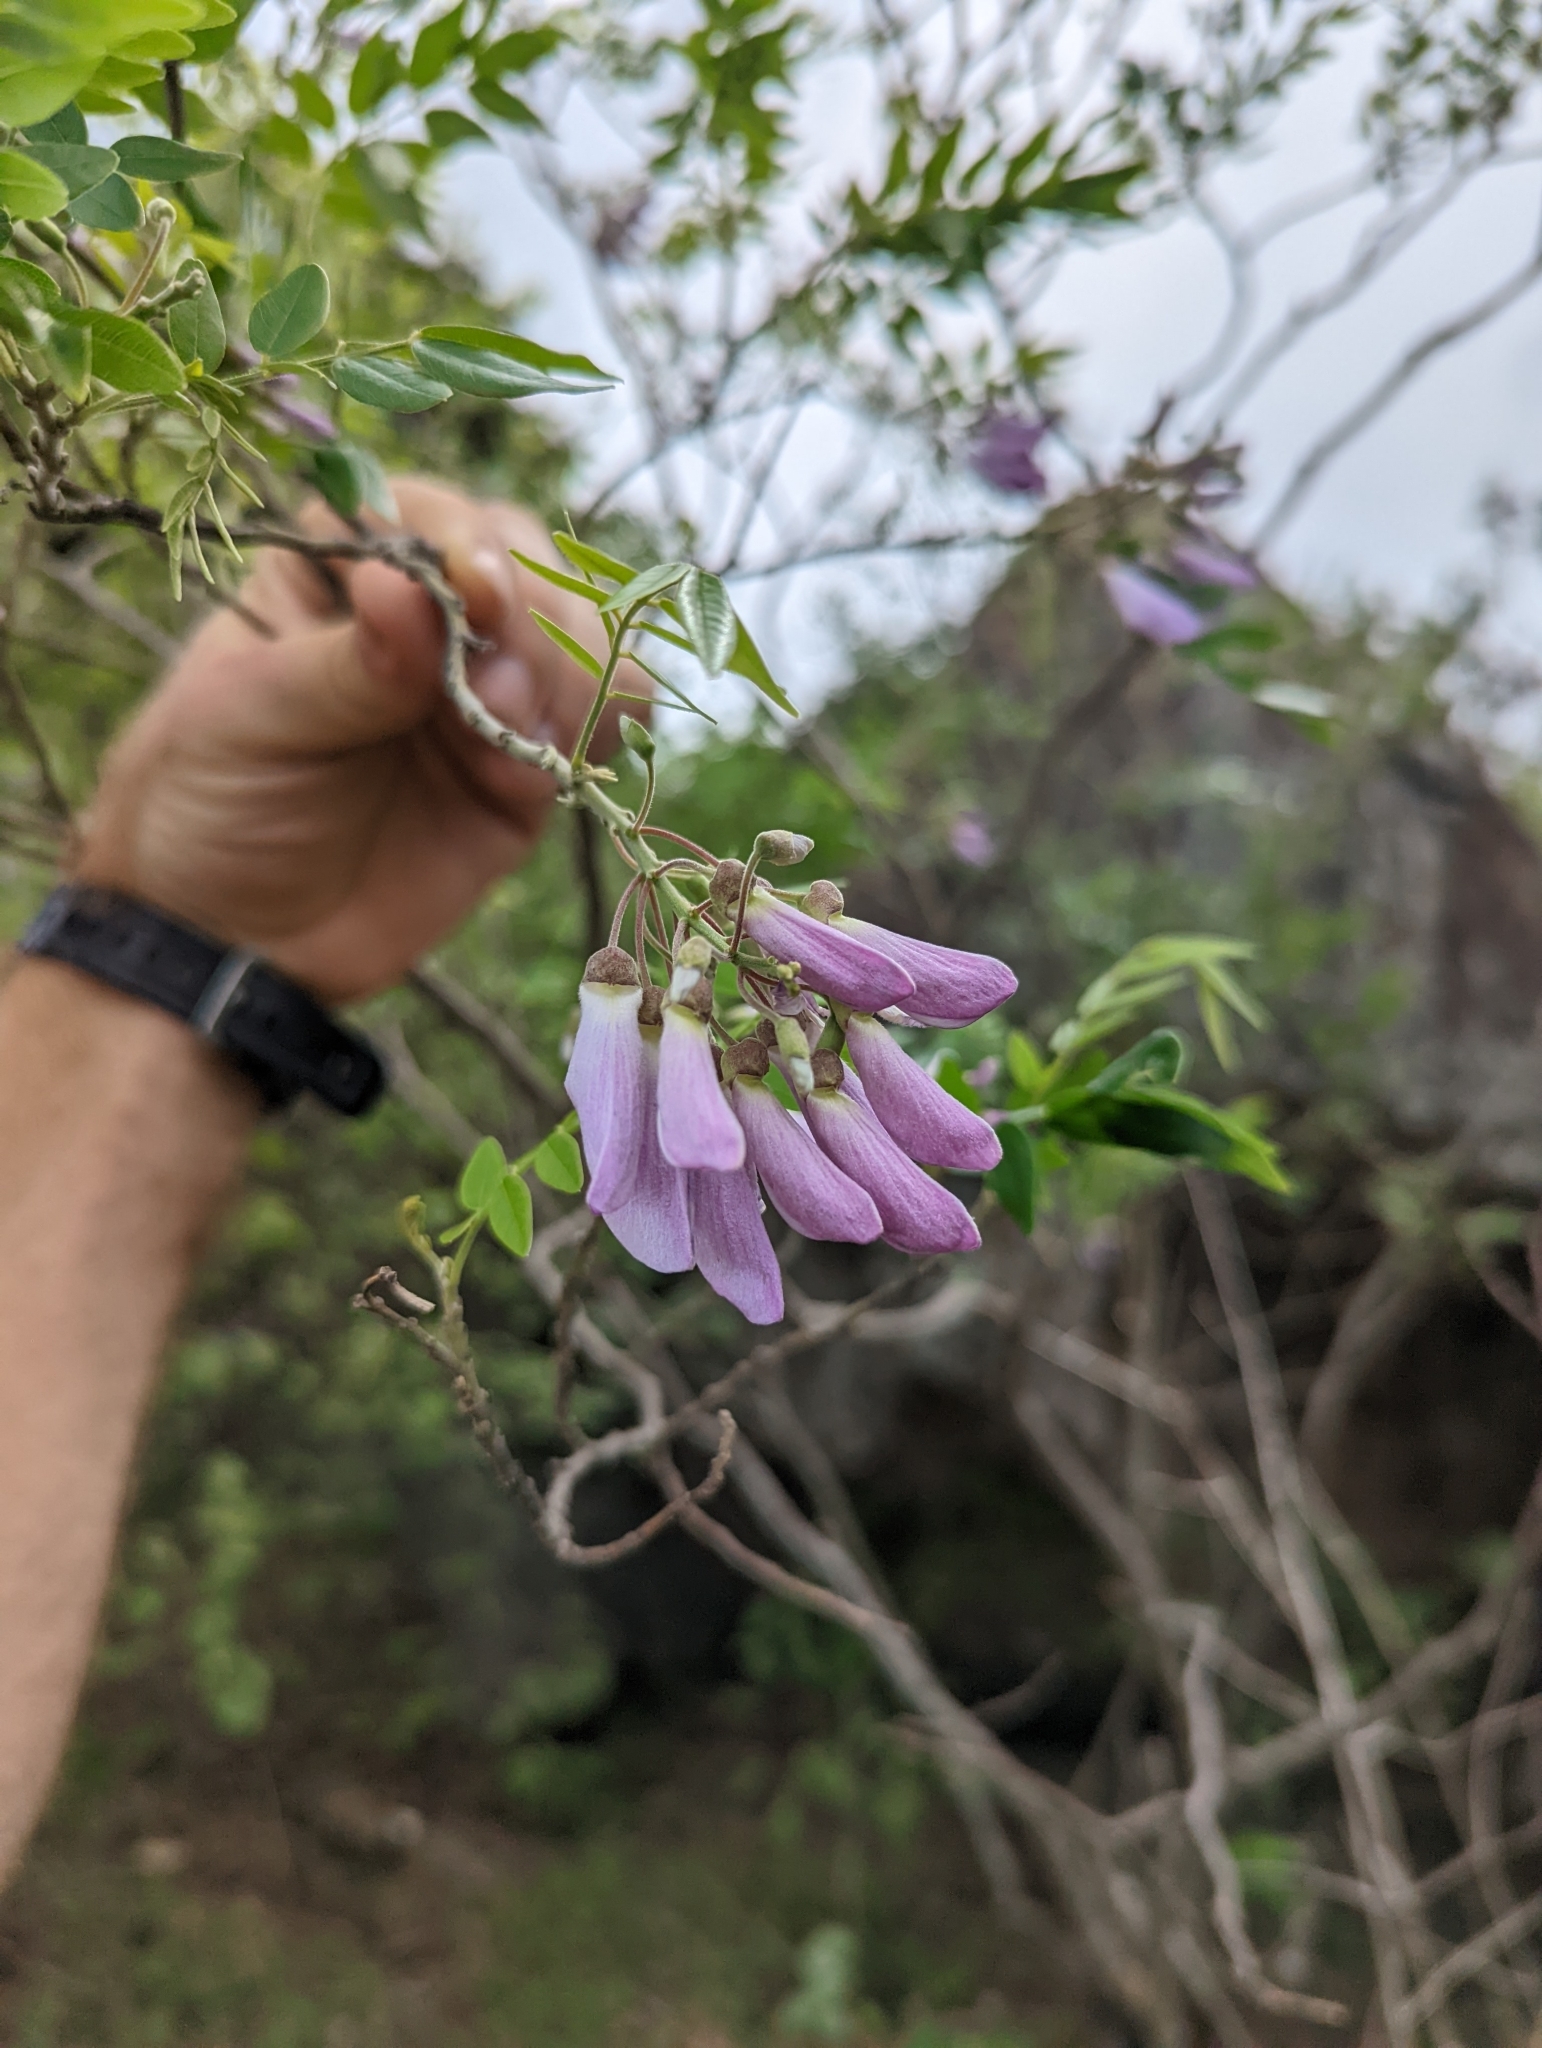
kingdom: Plantae
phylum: Tracheophyta
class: Magnoliopsida
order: Fabales
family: Fabaceae
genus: Gliricidia
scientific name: Gliricidia sepium
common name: Quickstick
